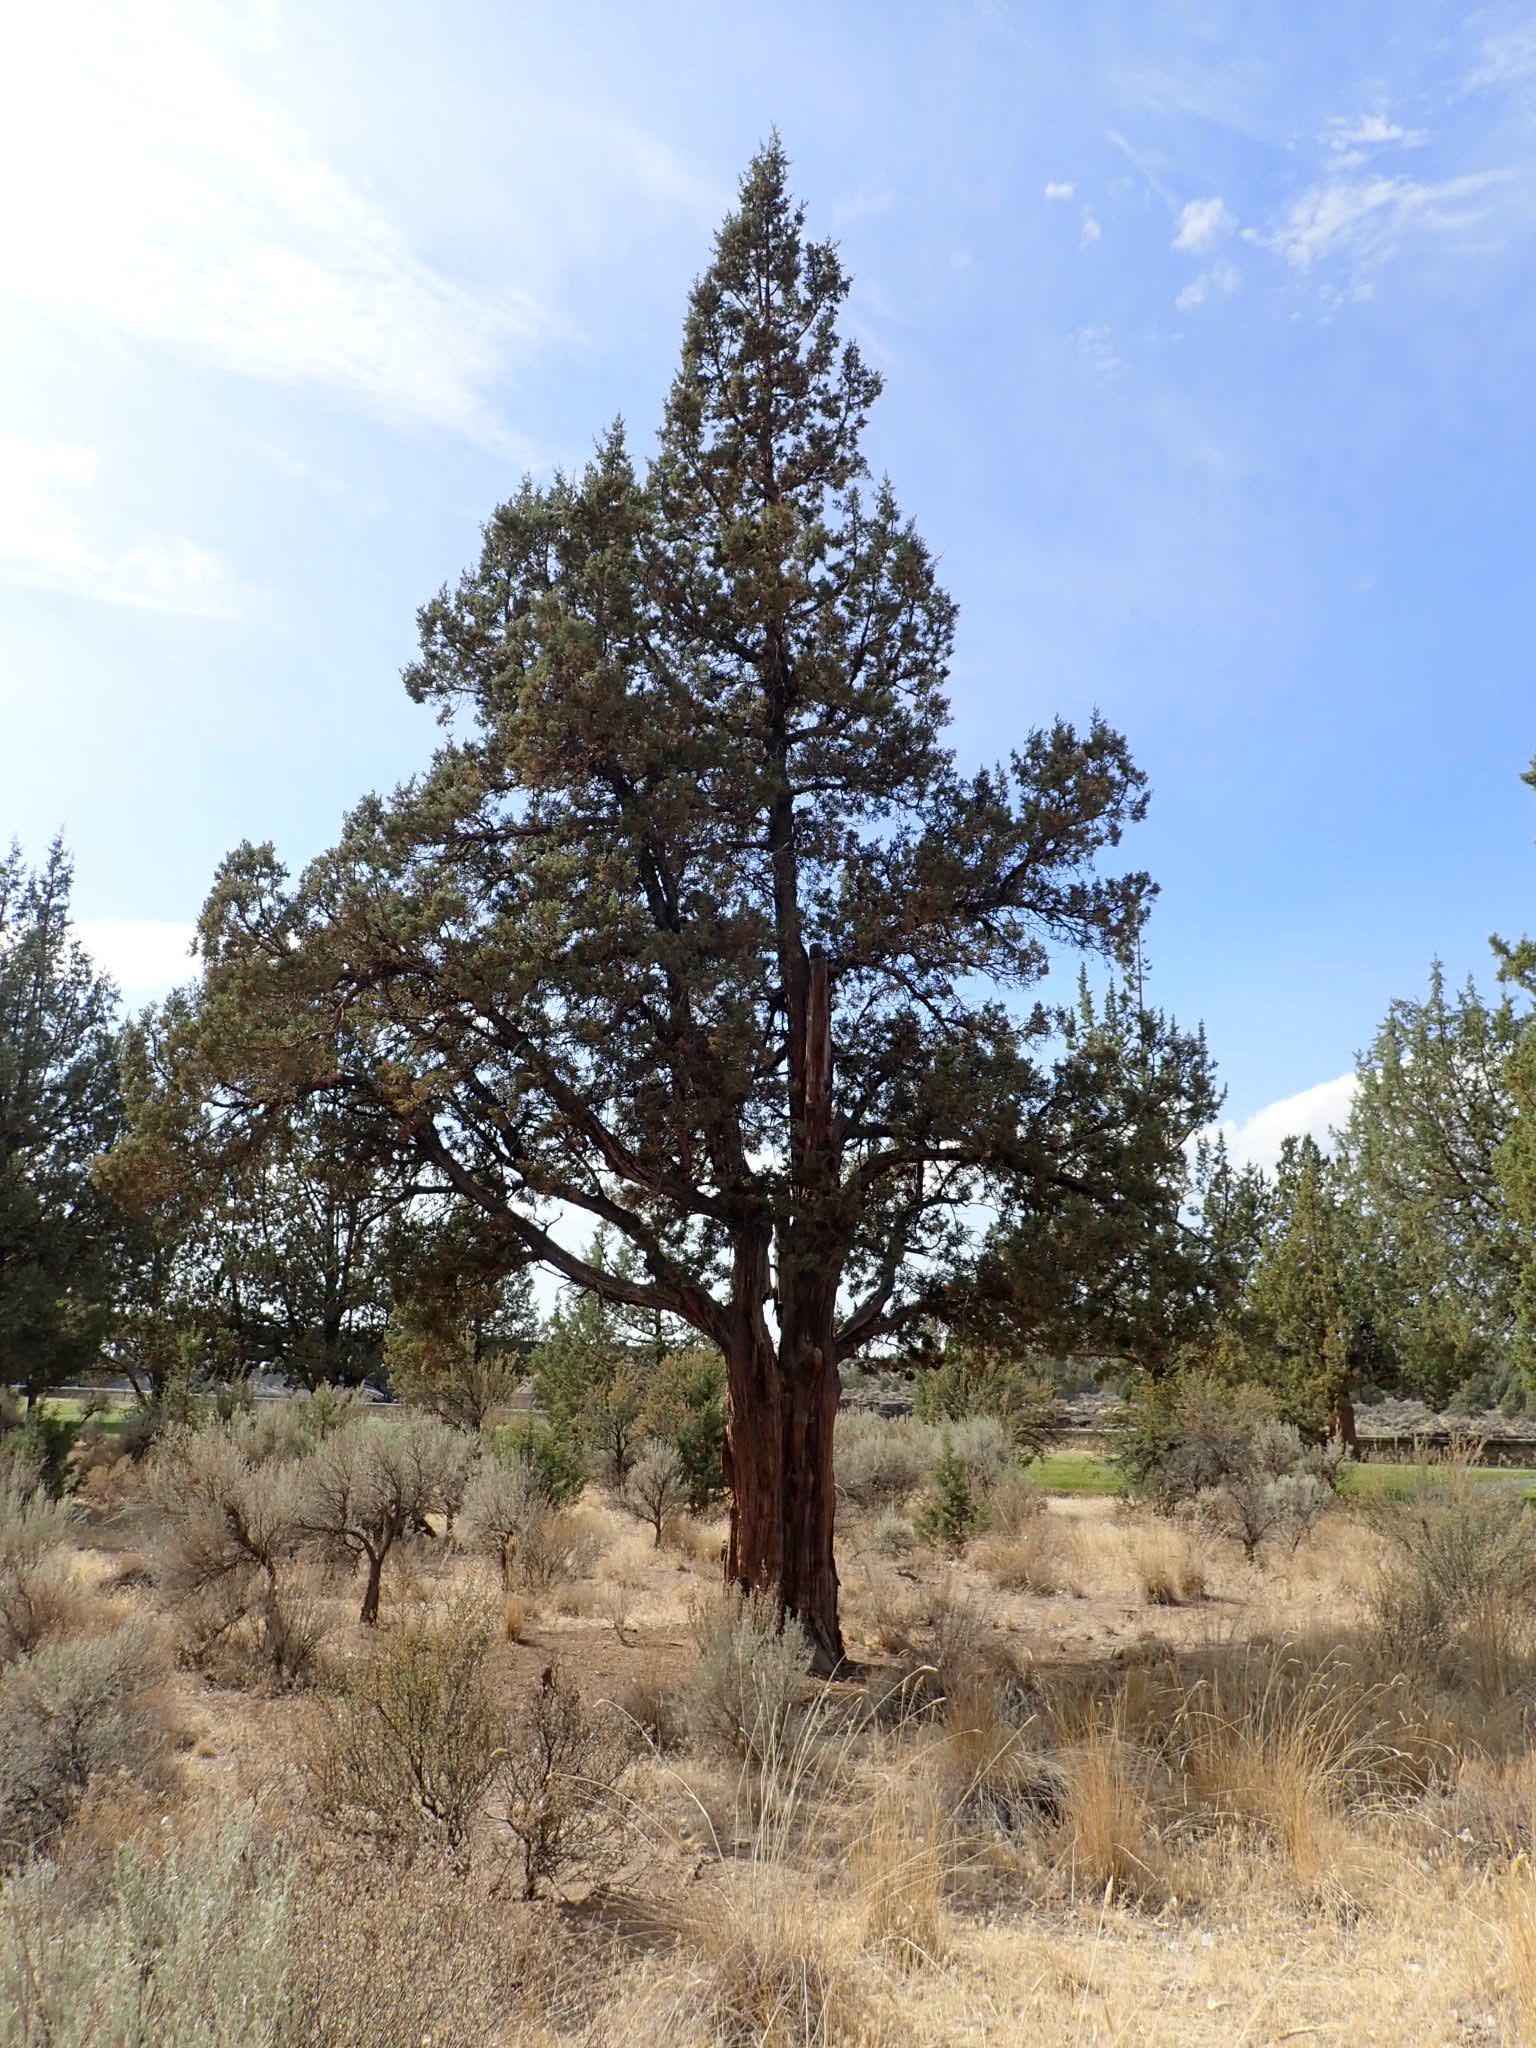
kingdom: Plantae
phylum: Tracheophyta
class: Pinopsida
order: Pinales
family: Cupressaceae
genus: Juniperus
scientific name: Juniperus occidentalis
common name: Western juniper
